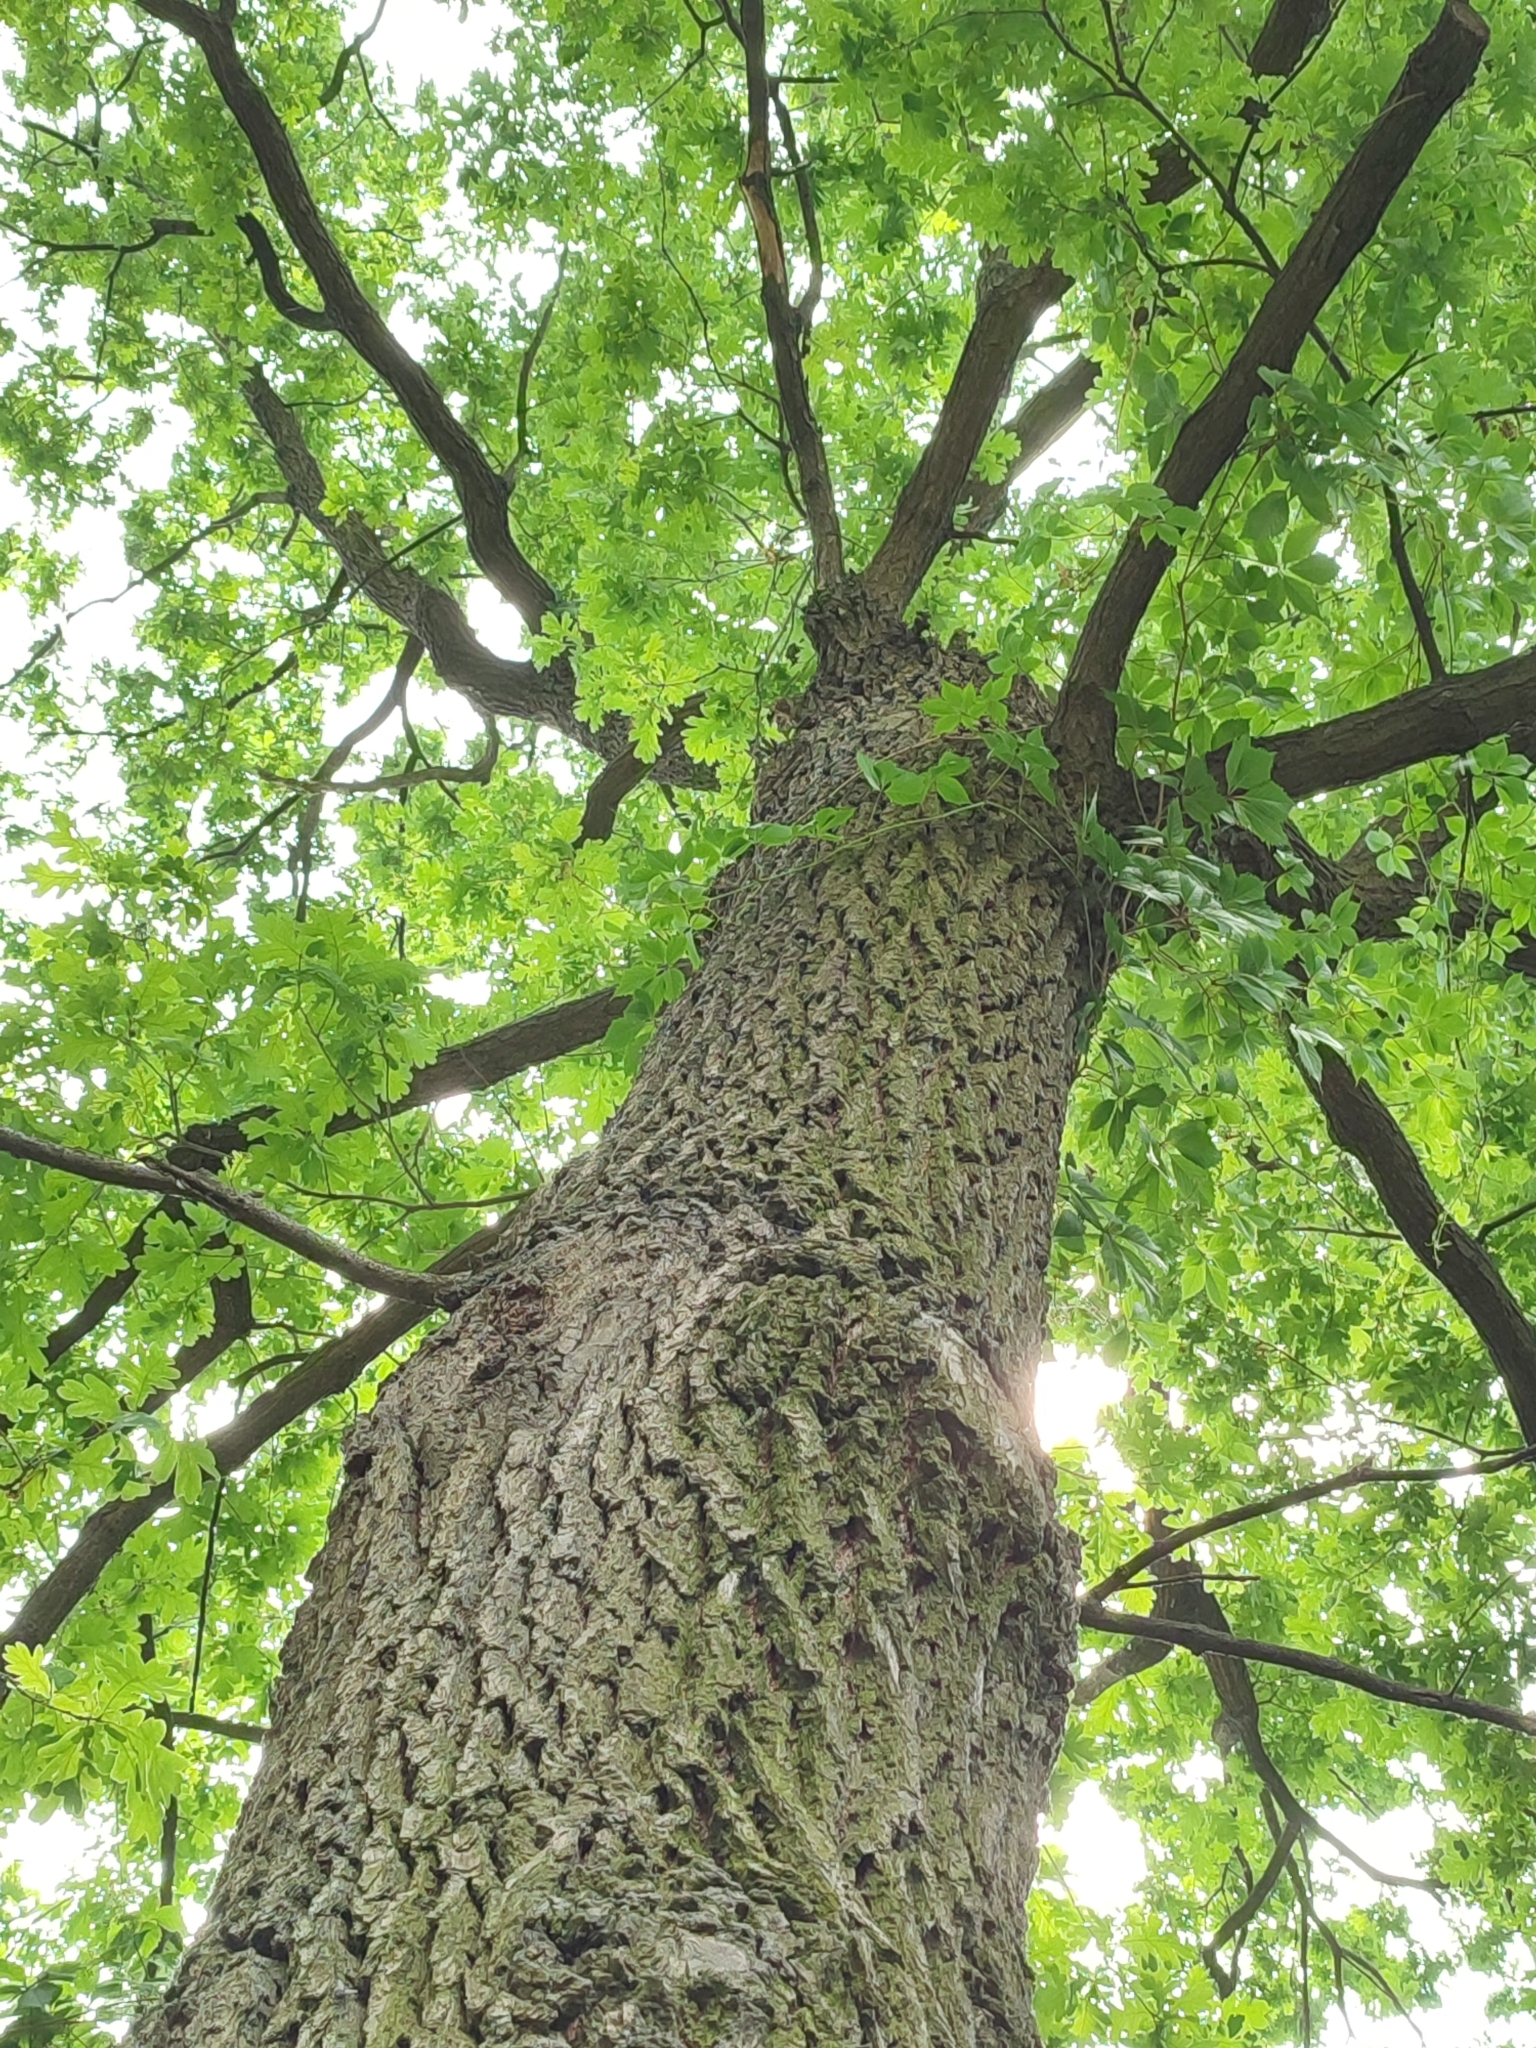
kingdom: Plantae
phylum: Tracheophyta
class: Magnoliopsida
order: Fagales
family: Fagaceae
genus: Quercus
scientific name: Quercus robur
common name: Pedunculate oak
